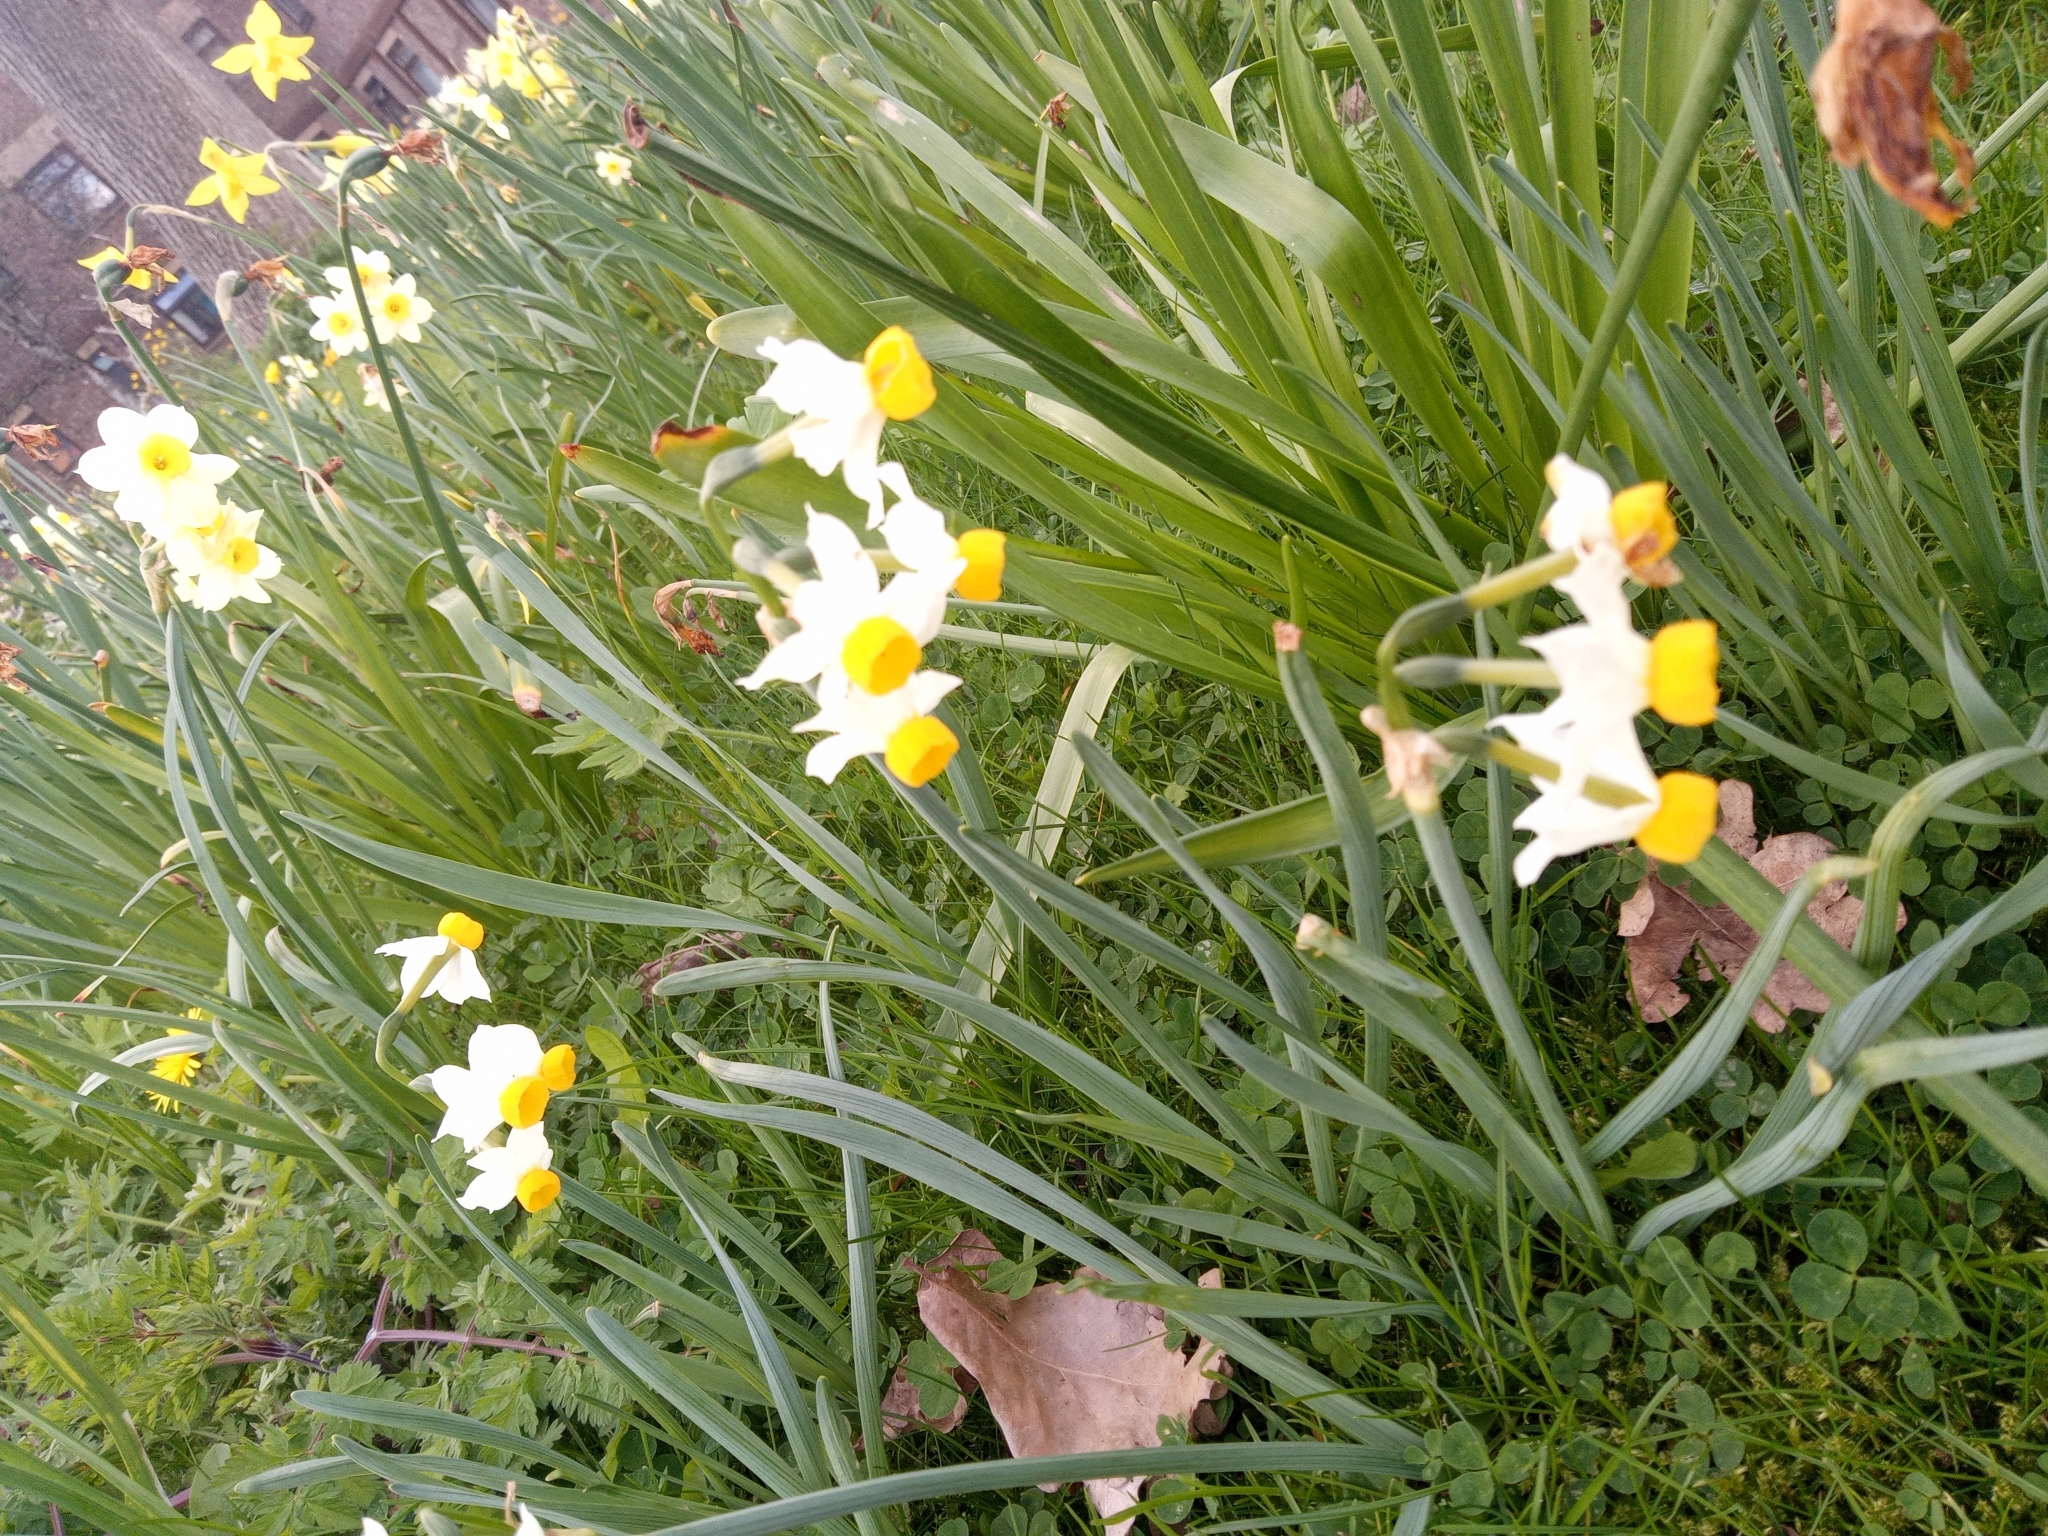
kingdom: Plantae
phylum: Tracheophyta
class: Liliopsida
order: Asparagales
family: Amaryllidaceae
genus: Narcissus
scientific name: Narcissus tazetta
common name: Bunch-flowered daffodil
